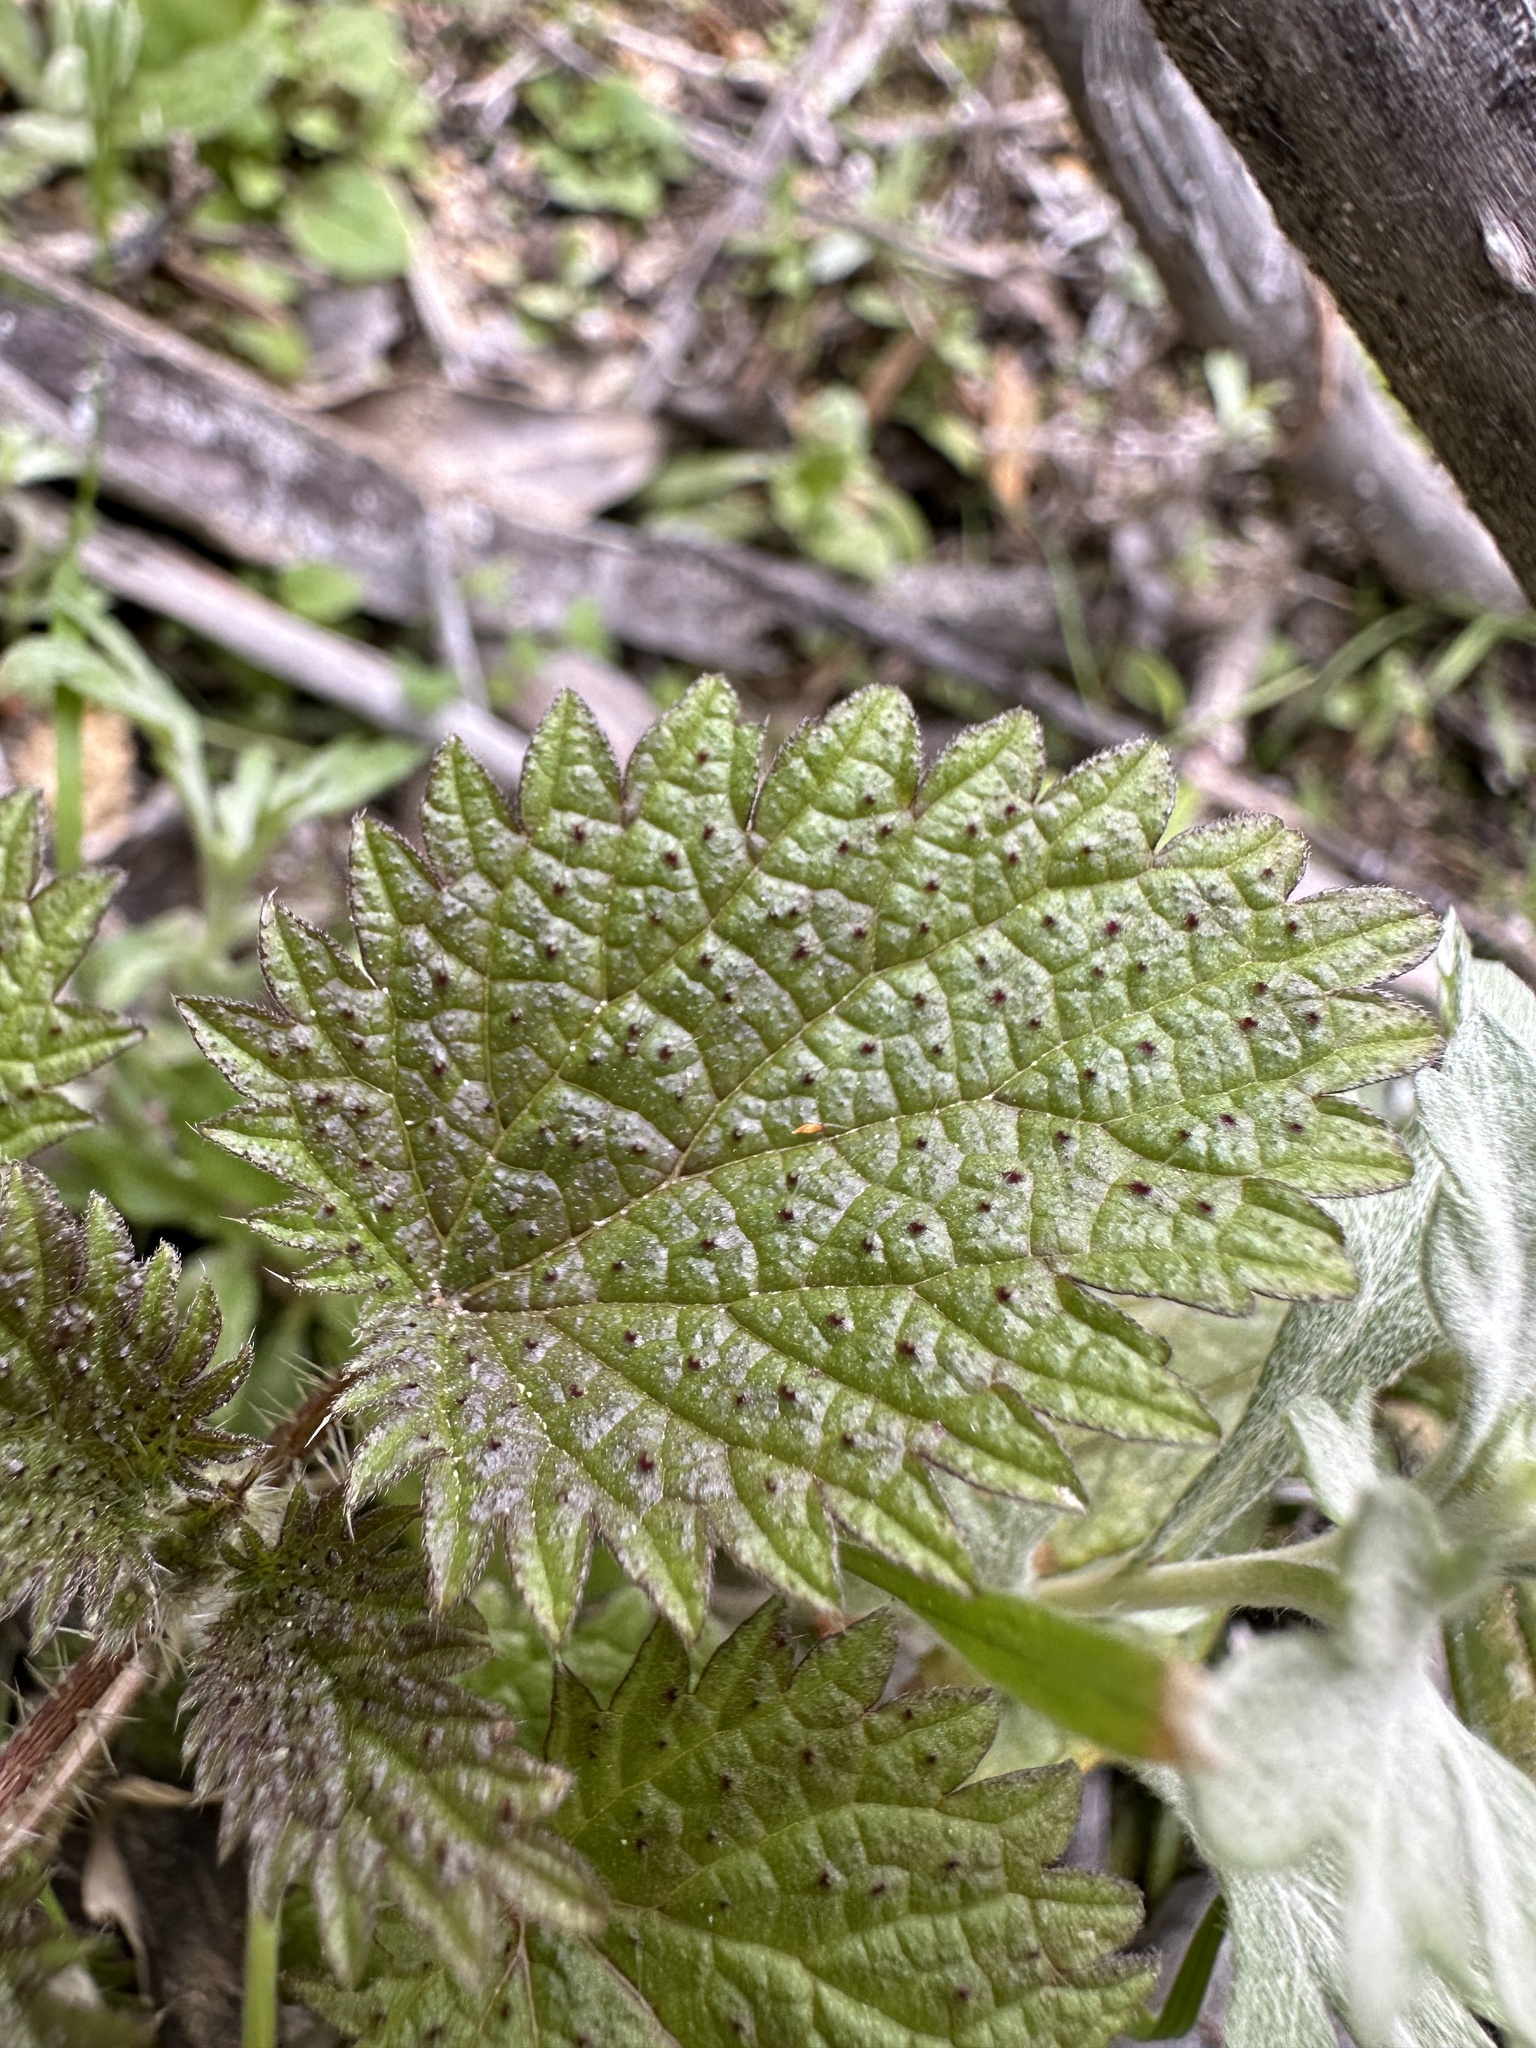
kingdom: Plantae
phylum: Tracheophyta
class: Magnoliopsida
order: Rosales
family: Urticaceae
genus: Hesperocnide
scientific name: Hesperocnide tenella
